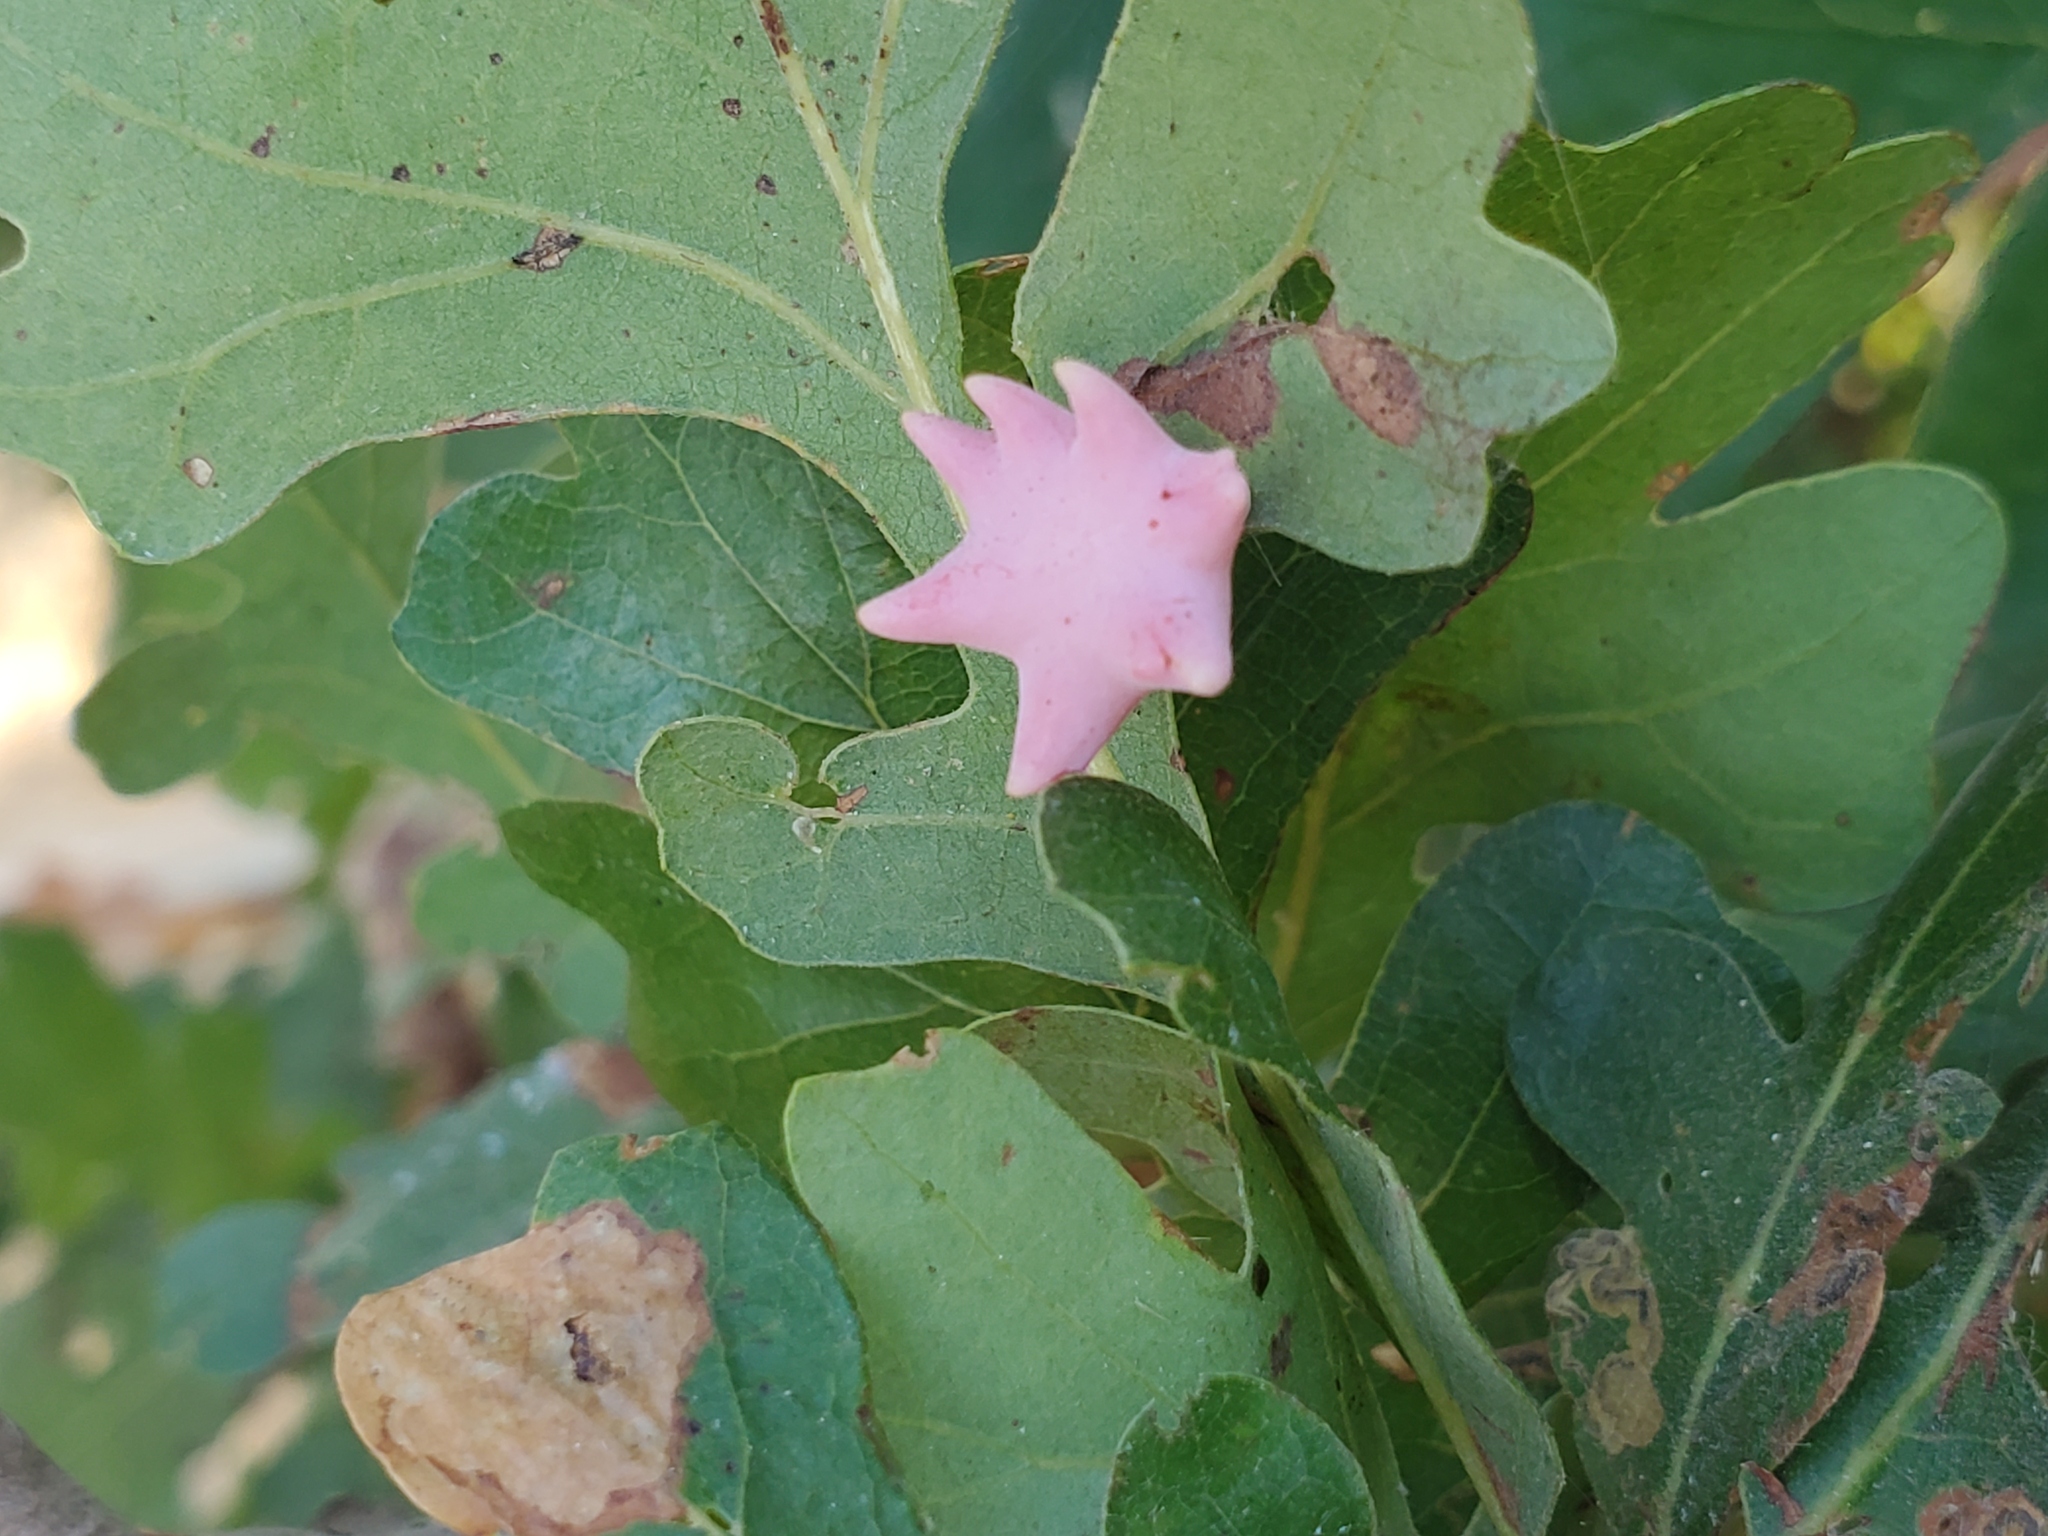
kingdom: Animalia
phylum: Arthropoda
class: Insecta
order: Hymenoptera
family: Cynipidae
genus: Cynips
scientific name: Cynips douglasi
